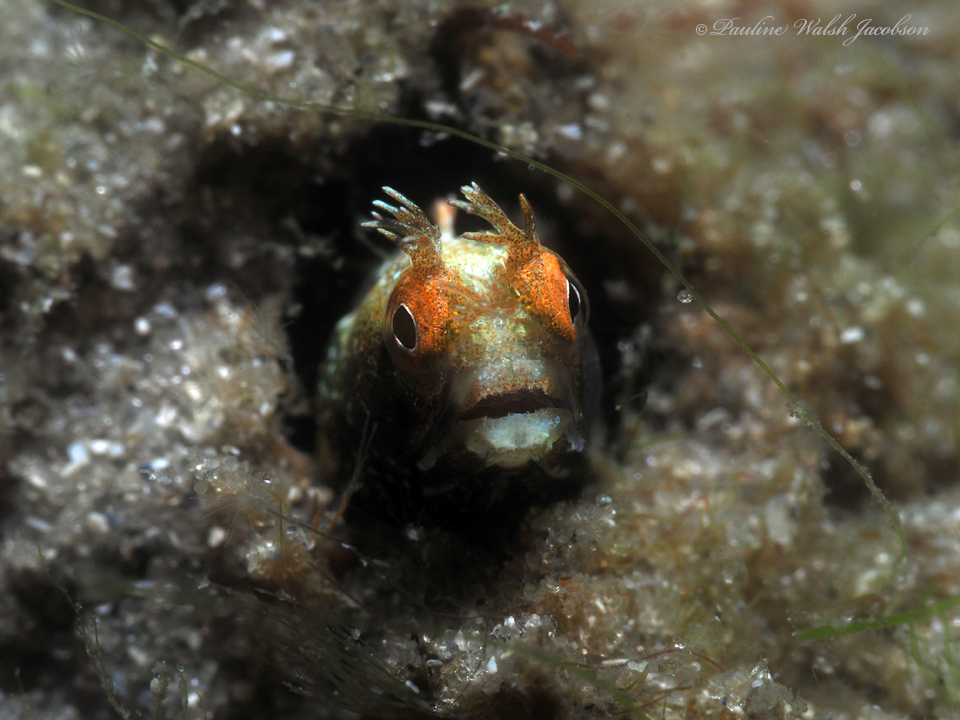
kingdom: Animalia
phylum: Chordata
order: Perciformes
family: Chaenopsidae
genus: Acanthemblemaria
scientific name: Acanthemblemaria aspera
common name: Roughhead blenny
